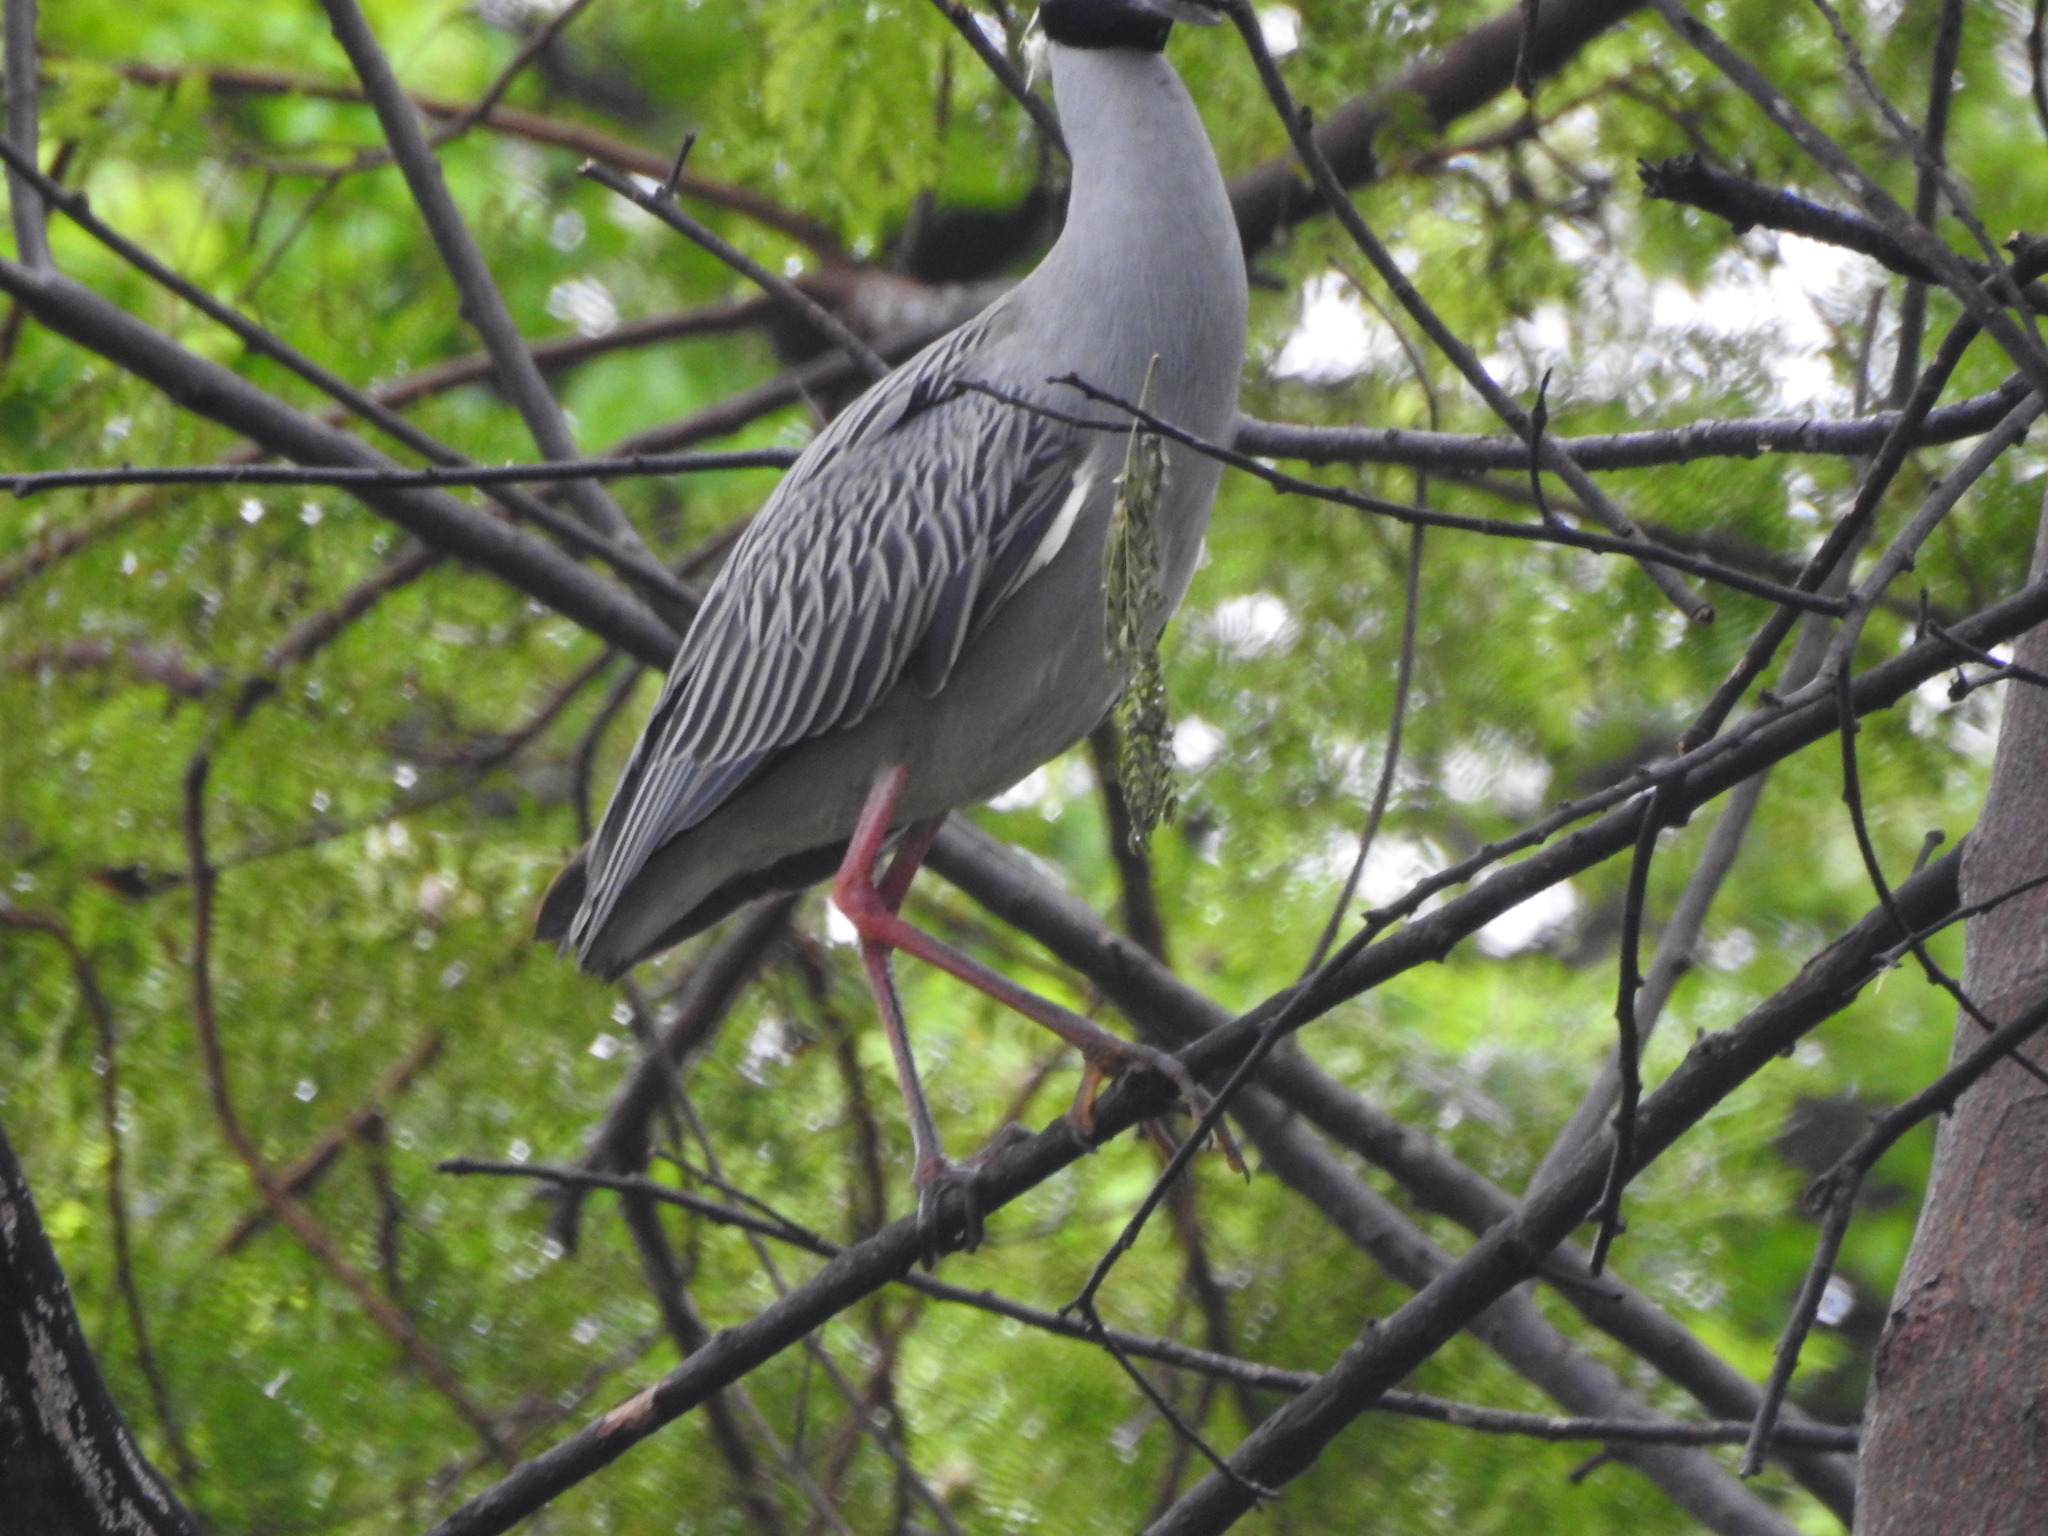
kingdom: Animalia
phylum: Chordata
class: Aves
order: Pelecaniformes
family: Ardeidae
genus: Nyctanassa
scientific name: Nyctanassa violacea
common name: Yellow-crowned night heron
